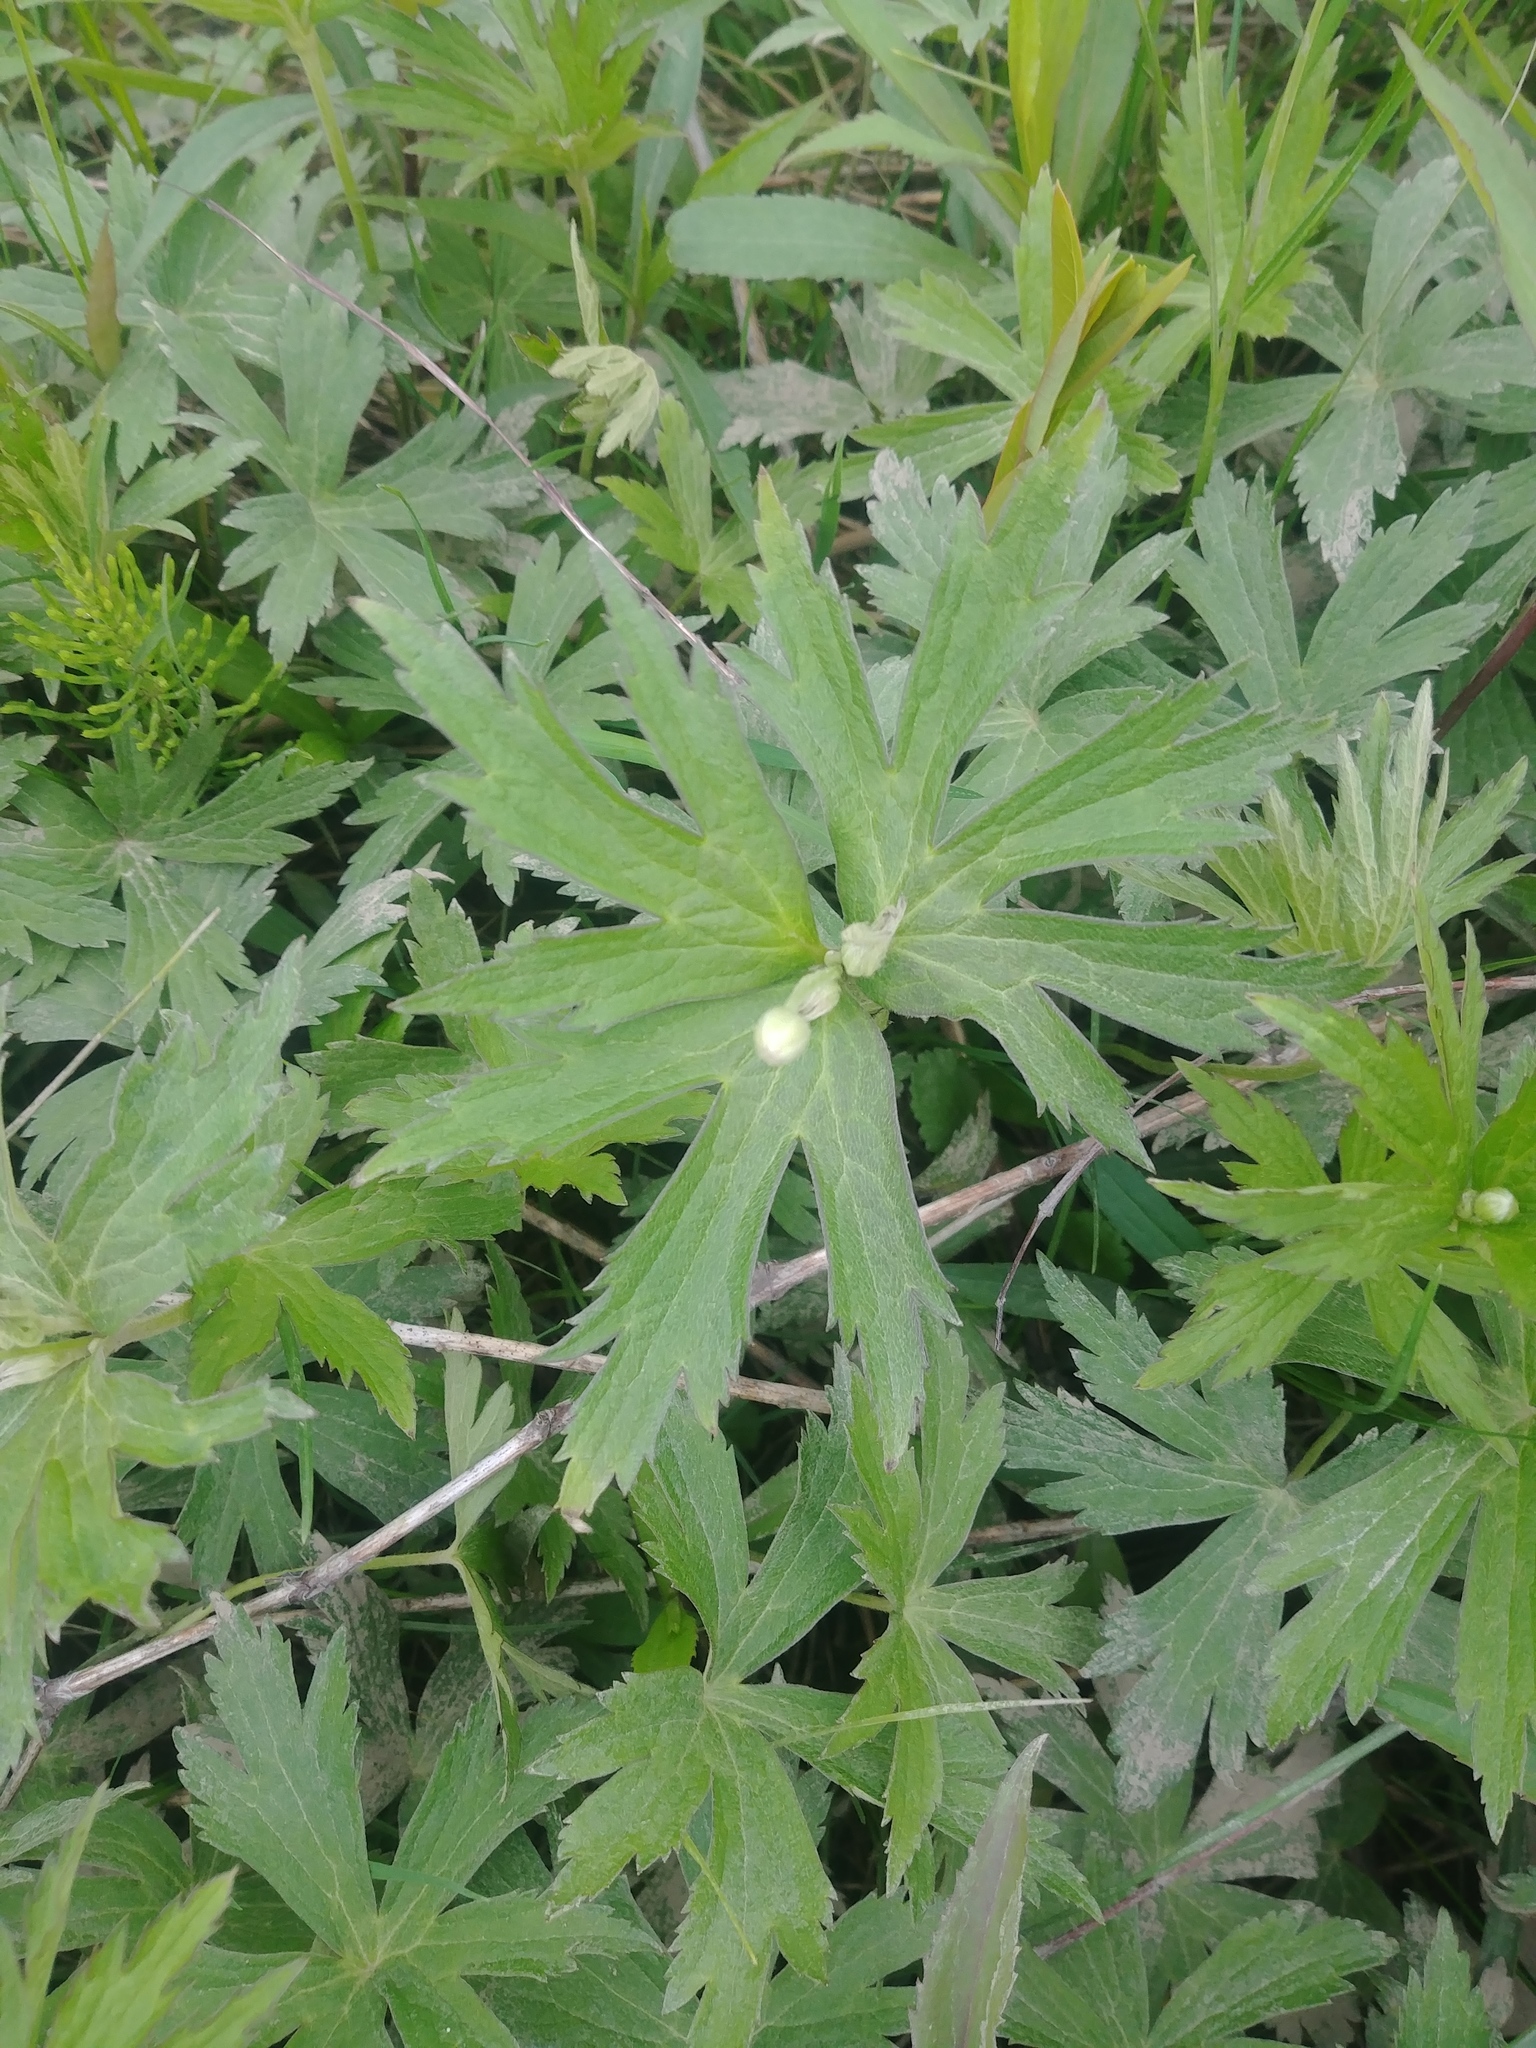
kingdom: Plantae
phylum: Tracheophyta
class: Magnoliopsida
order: Ranunculales
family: Ranunculaceae
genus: Anemonastrum
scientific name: Anemonastrum canadense
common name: Canada anemone
